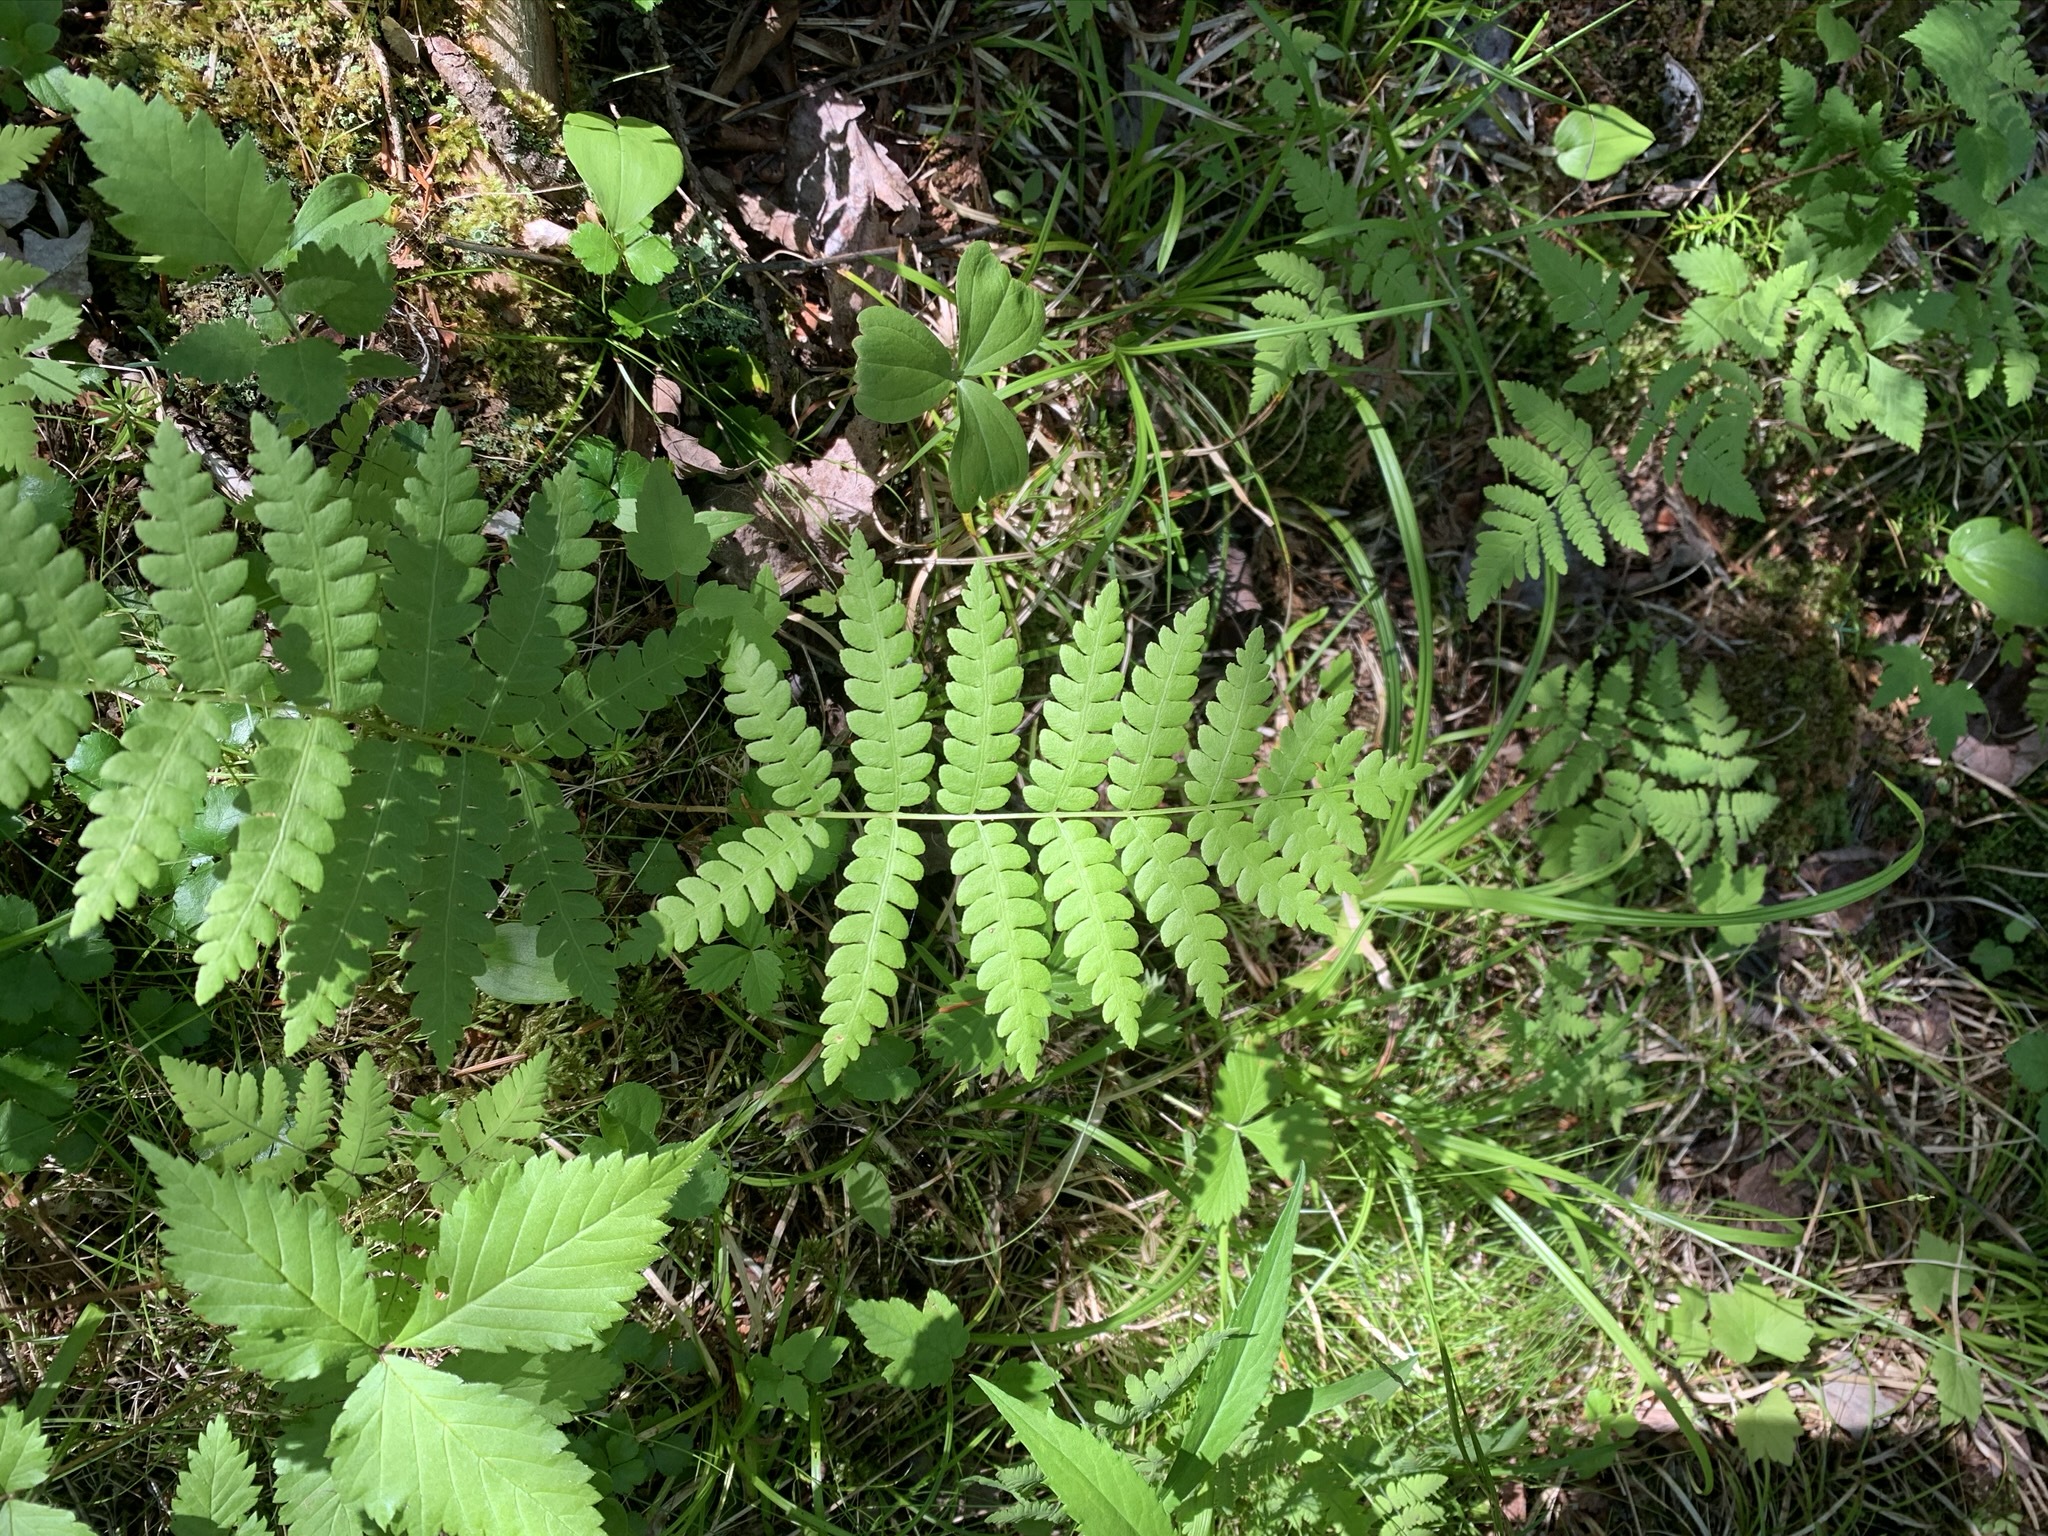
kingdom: Plantae
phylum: Tracheophyta
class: Polypodiopsida
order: Osmundales
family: Osmundaceae
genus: Osmundastrum
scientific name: Osmundastrum cinnamomeum
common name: Cinnamon fern
